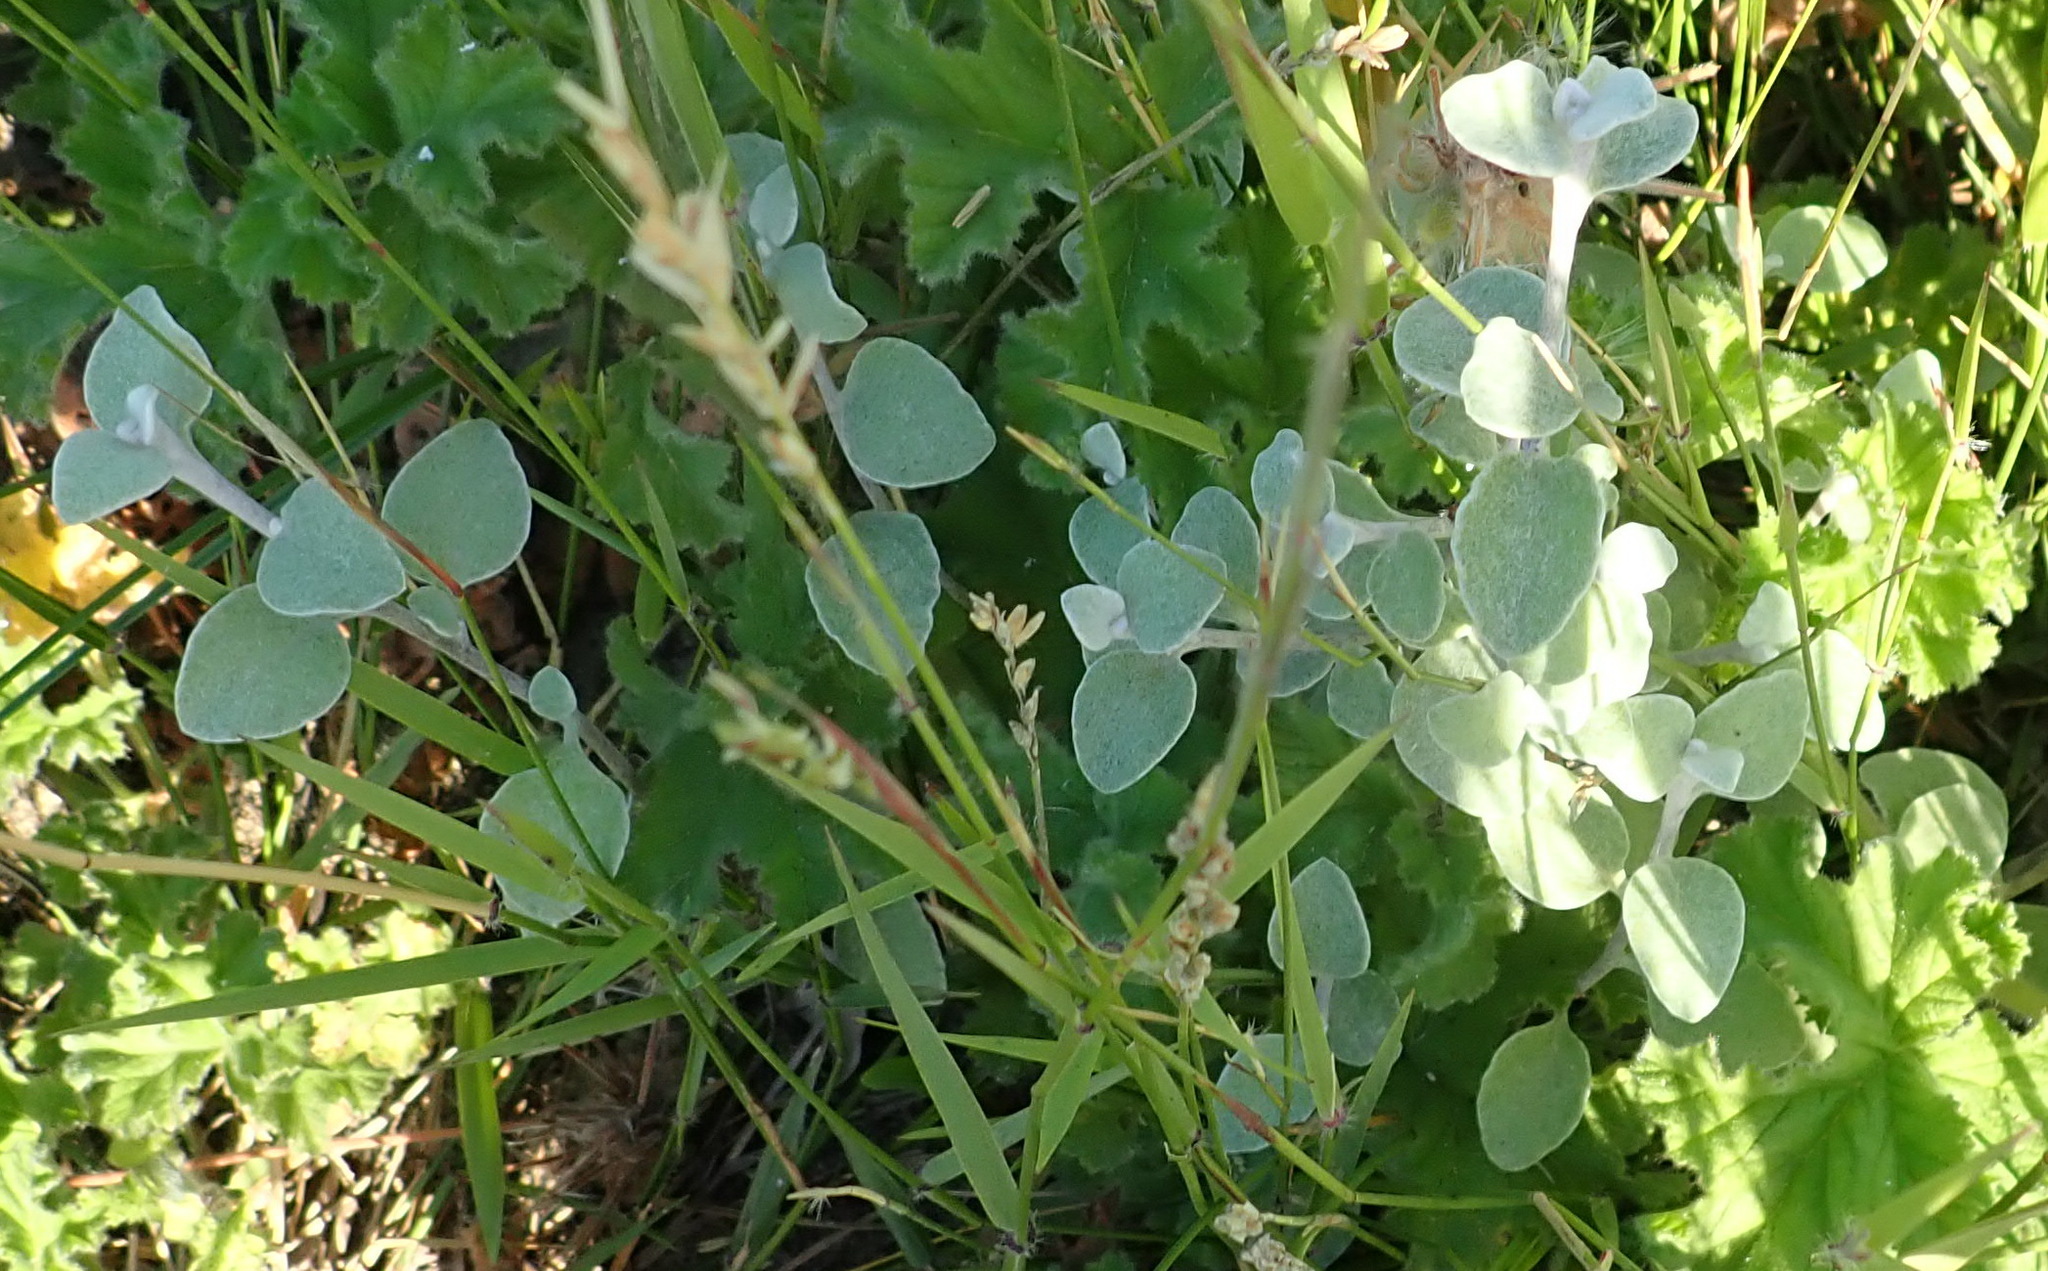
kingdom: Plantae
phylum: Tracheophyta
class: Magnoliopsida
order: Asterales
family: Asteraceae
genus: Helichrysum
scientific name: Helichrysum petiolare
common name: Licorice-plant
